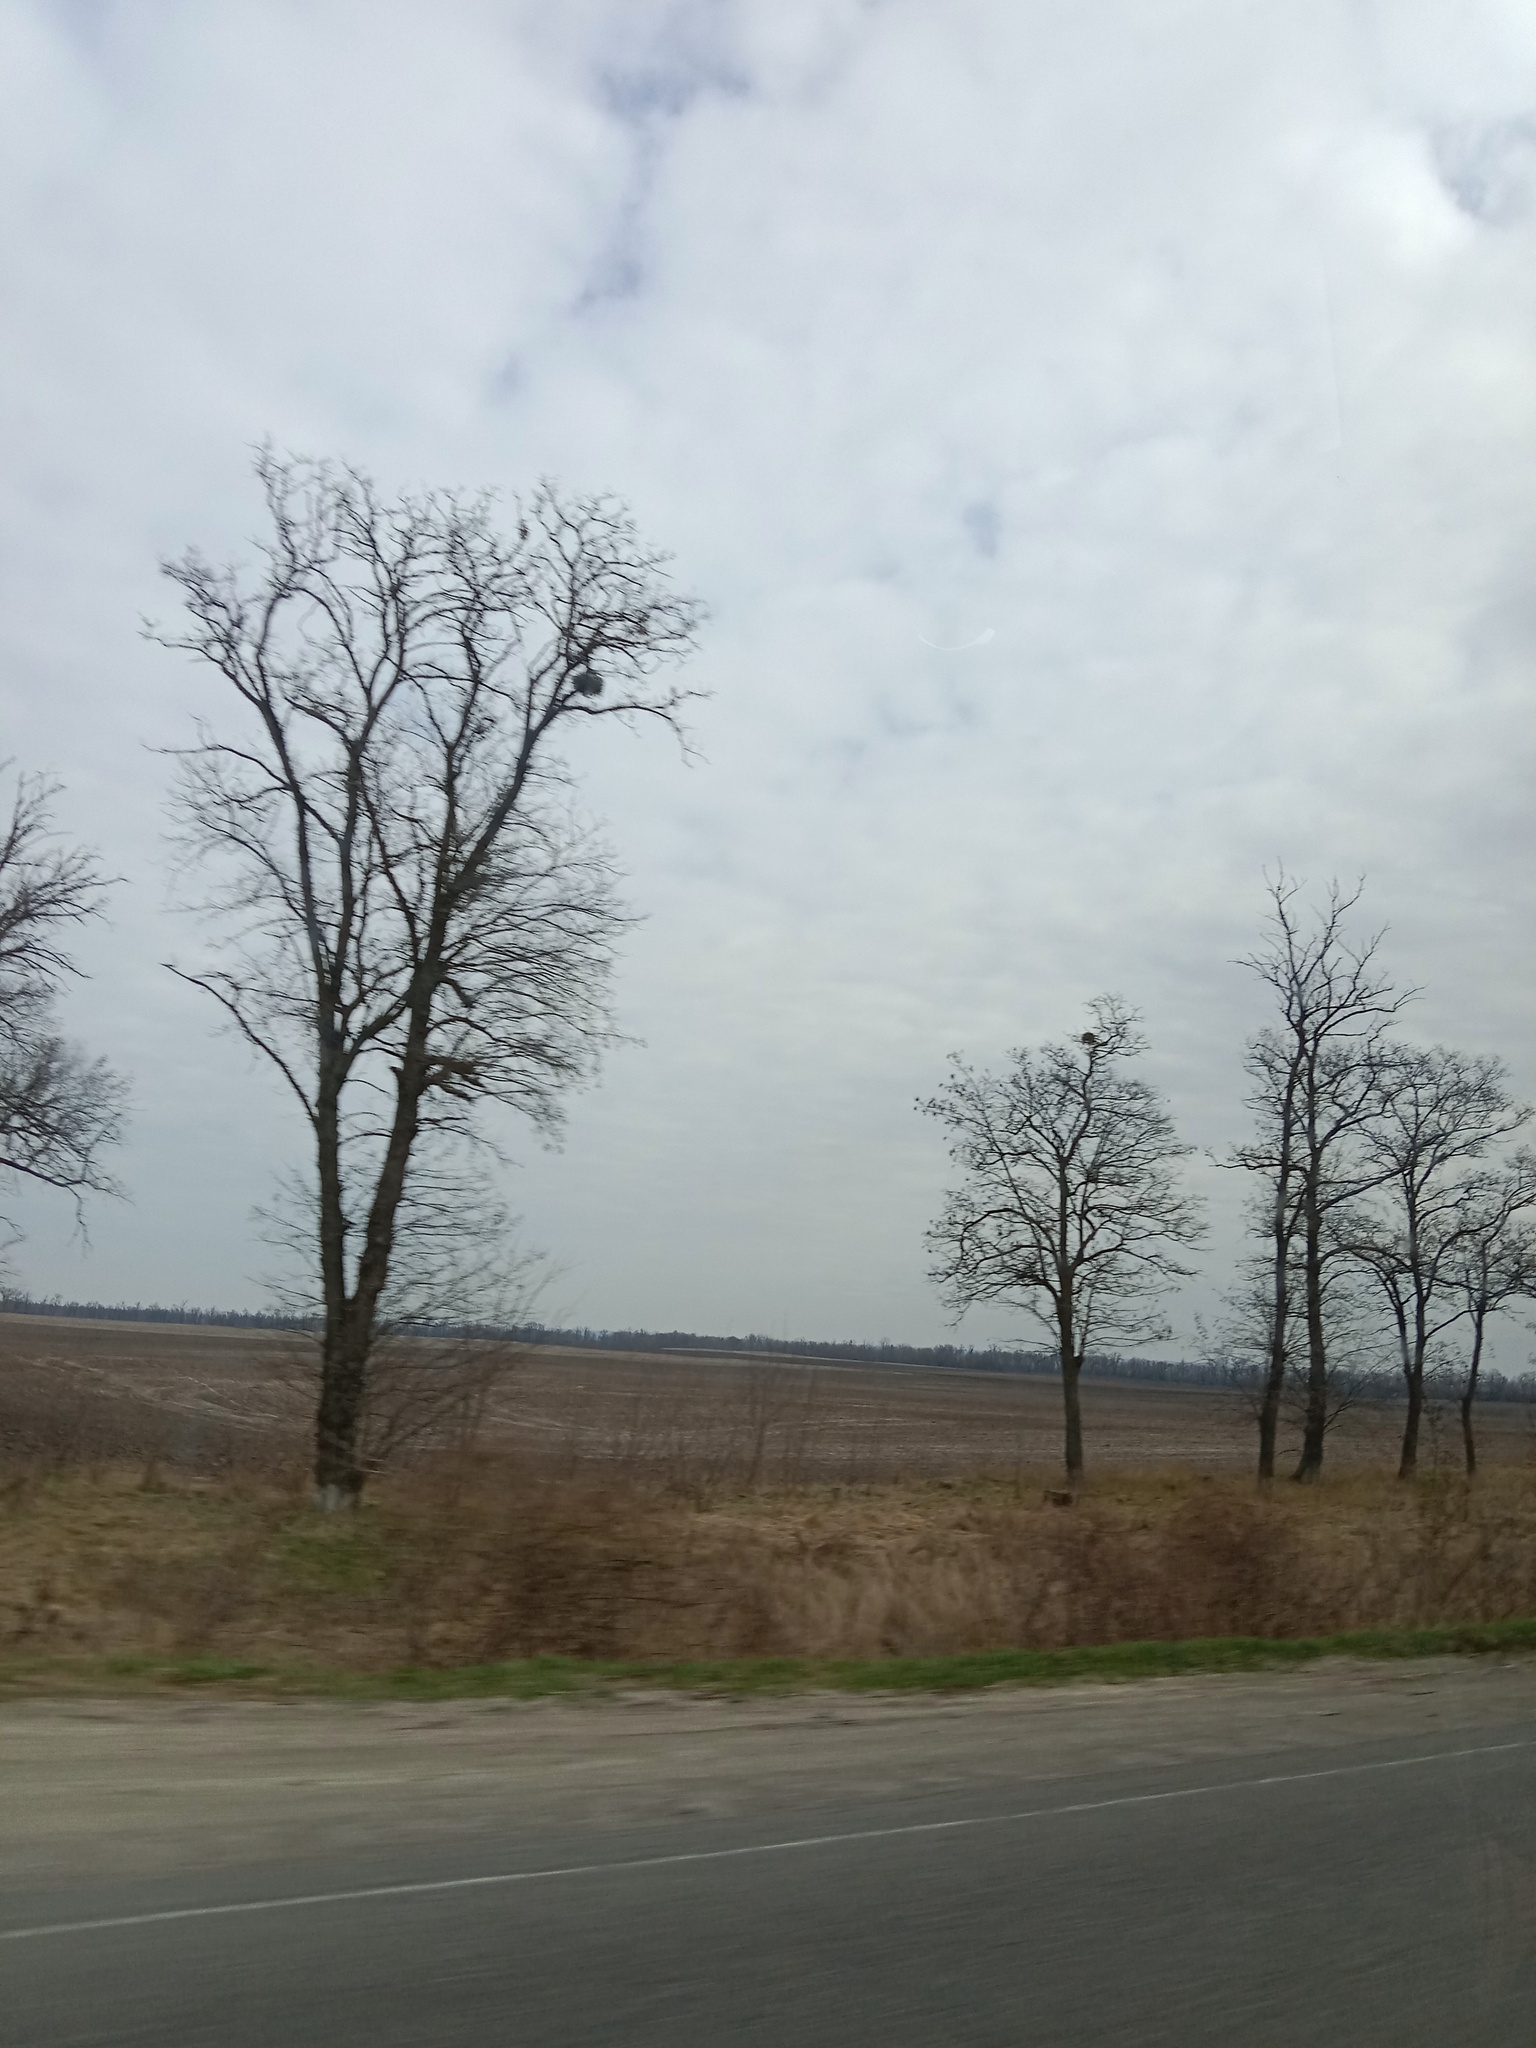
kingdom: Plantae
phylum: Tracheophyta
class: Magnoliopsida
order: Santalales
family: Viscaceae
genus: Viscum
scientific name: Viscum album
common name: Mistletoe
